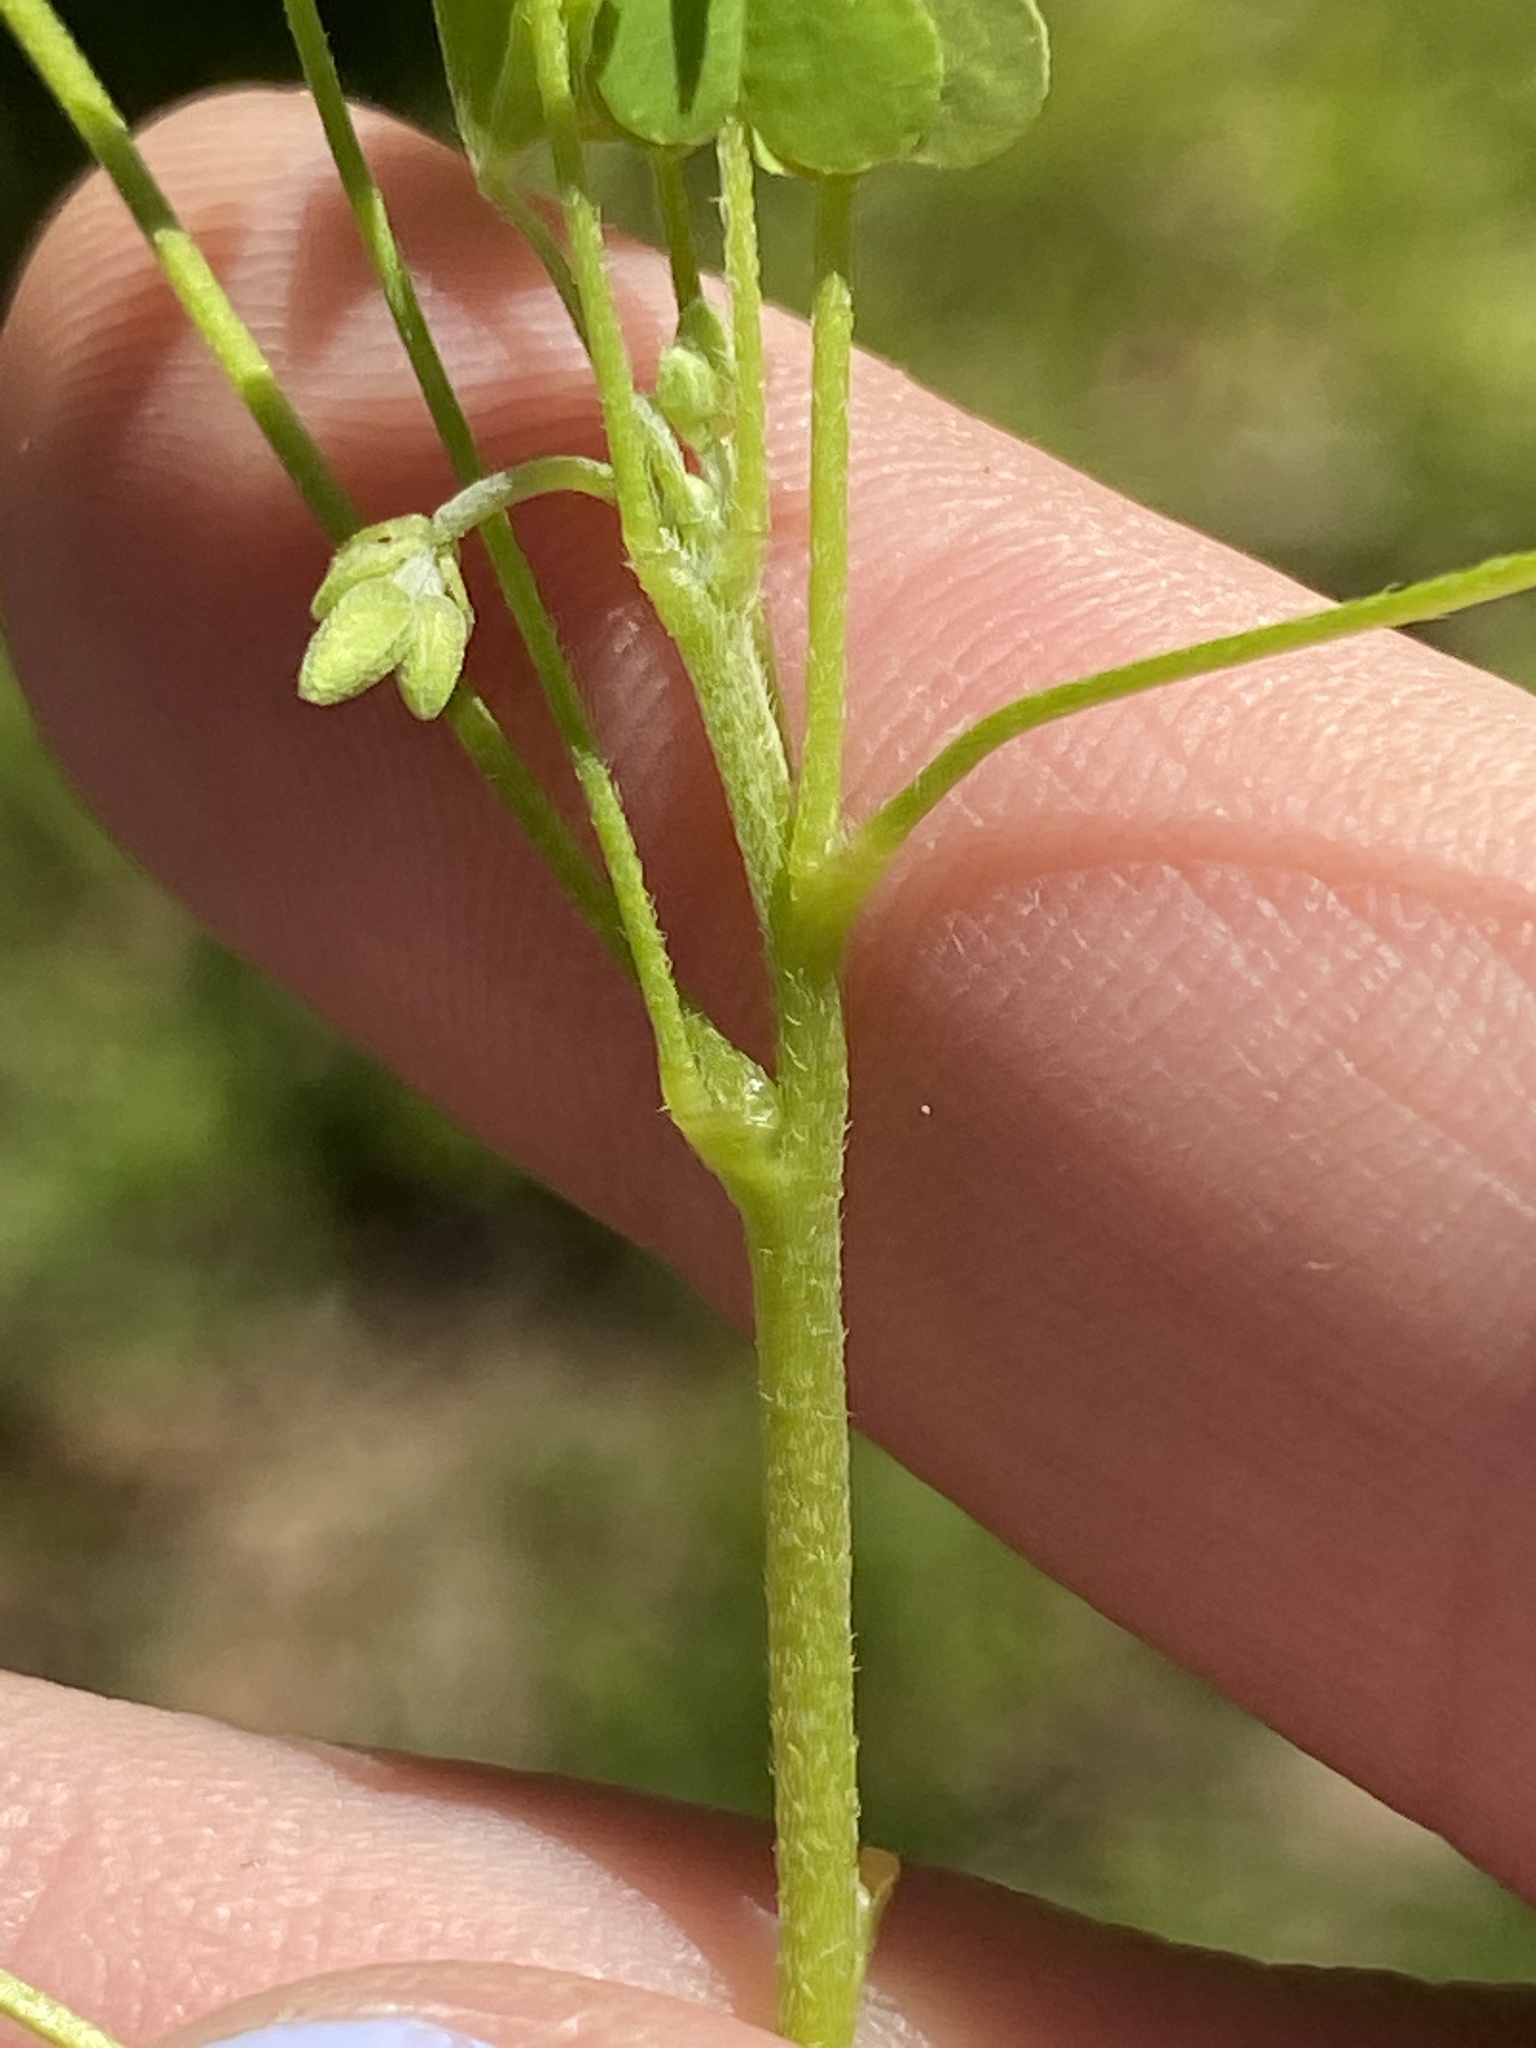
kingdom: Plantae
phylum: Tracheophyta
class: Magnoliopsida
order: Oxalidales
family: Oxalidaceae
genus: Oxalis
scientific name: Oxalis dillenii
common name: Sussex yellow-sorrel
